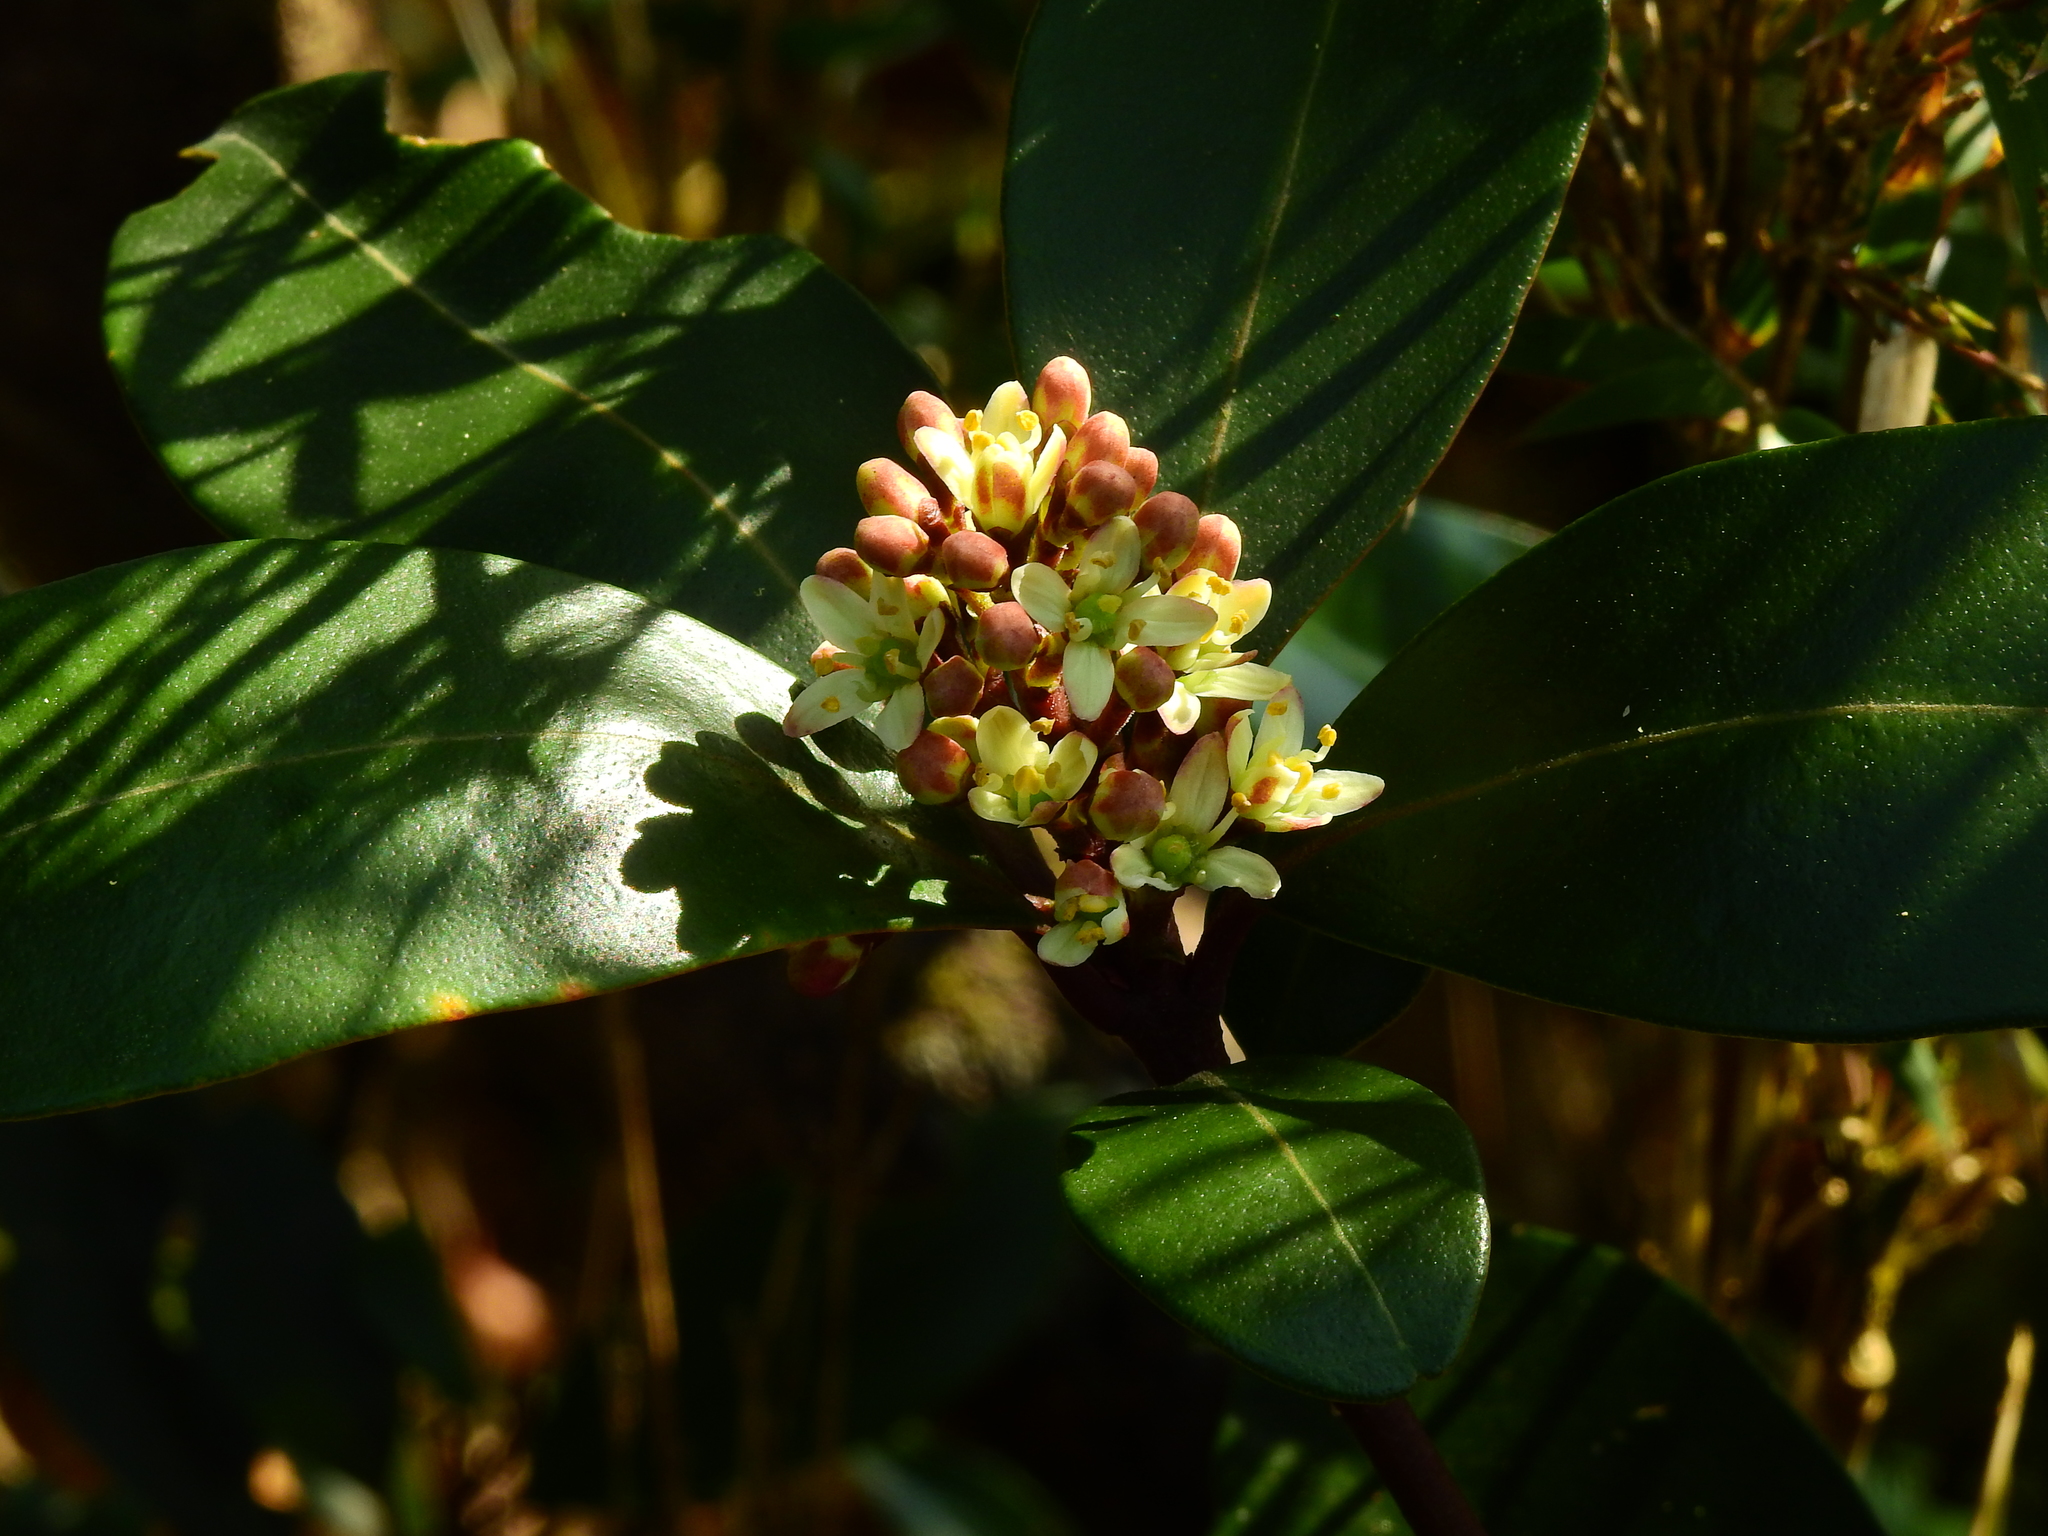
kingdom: Plantae
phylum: Tracheophyta
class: Magnoliopsida
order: Sapindales
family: Rutaceae
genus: Skimmia
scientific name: Skimmia japonica
